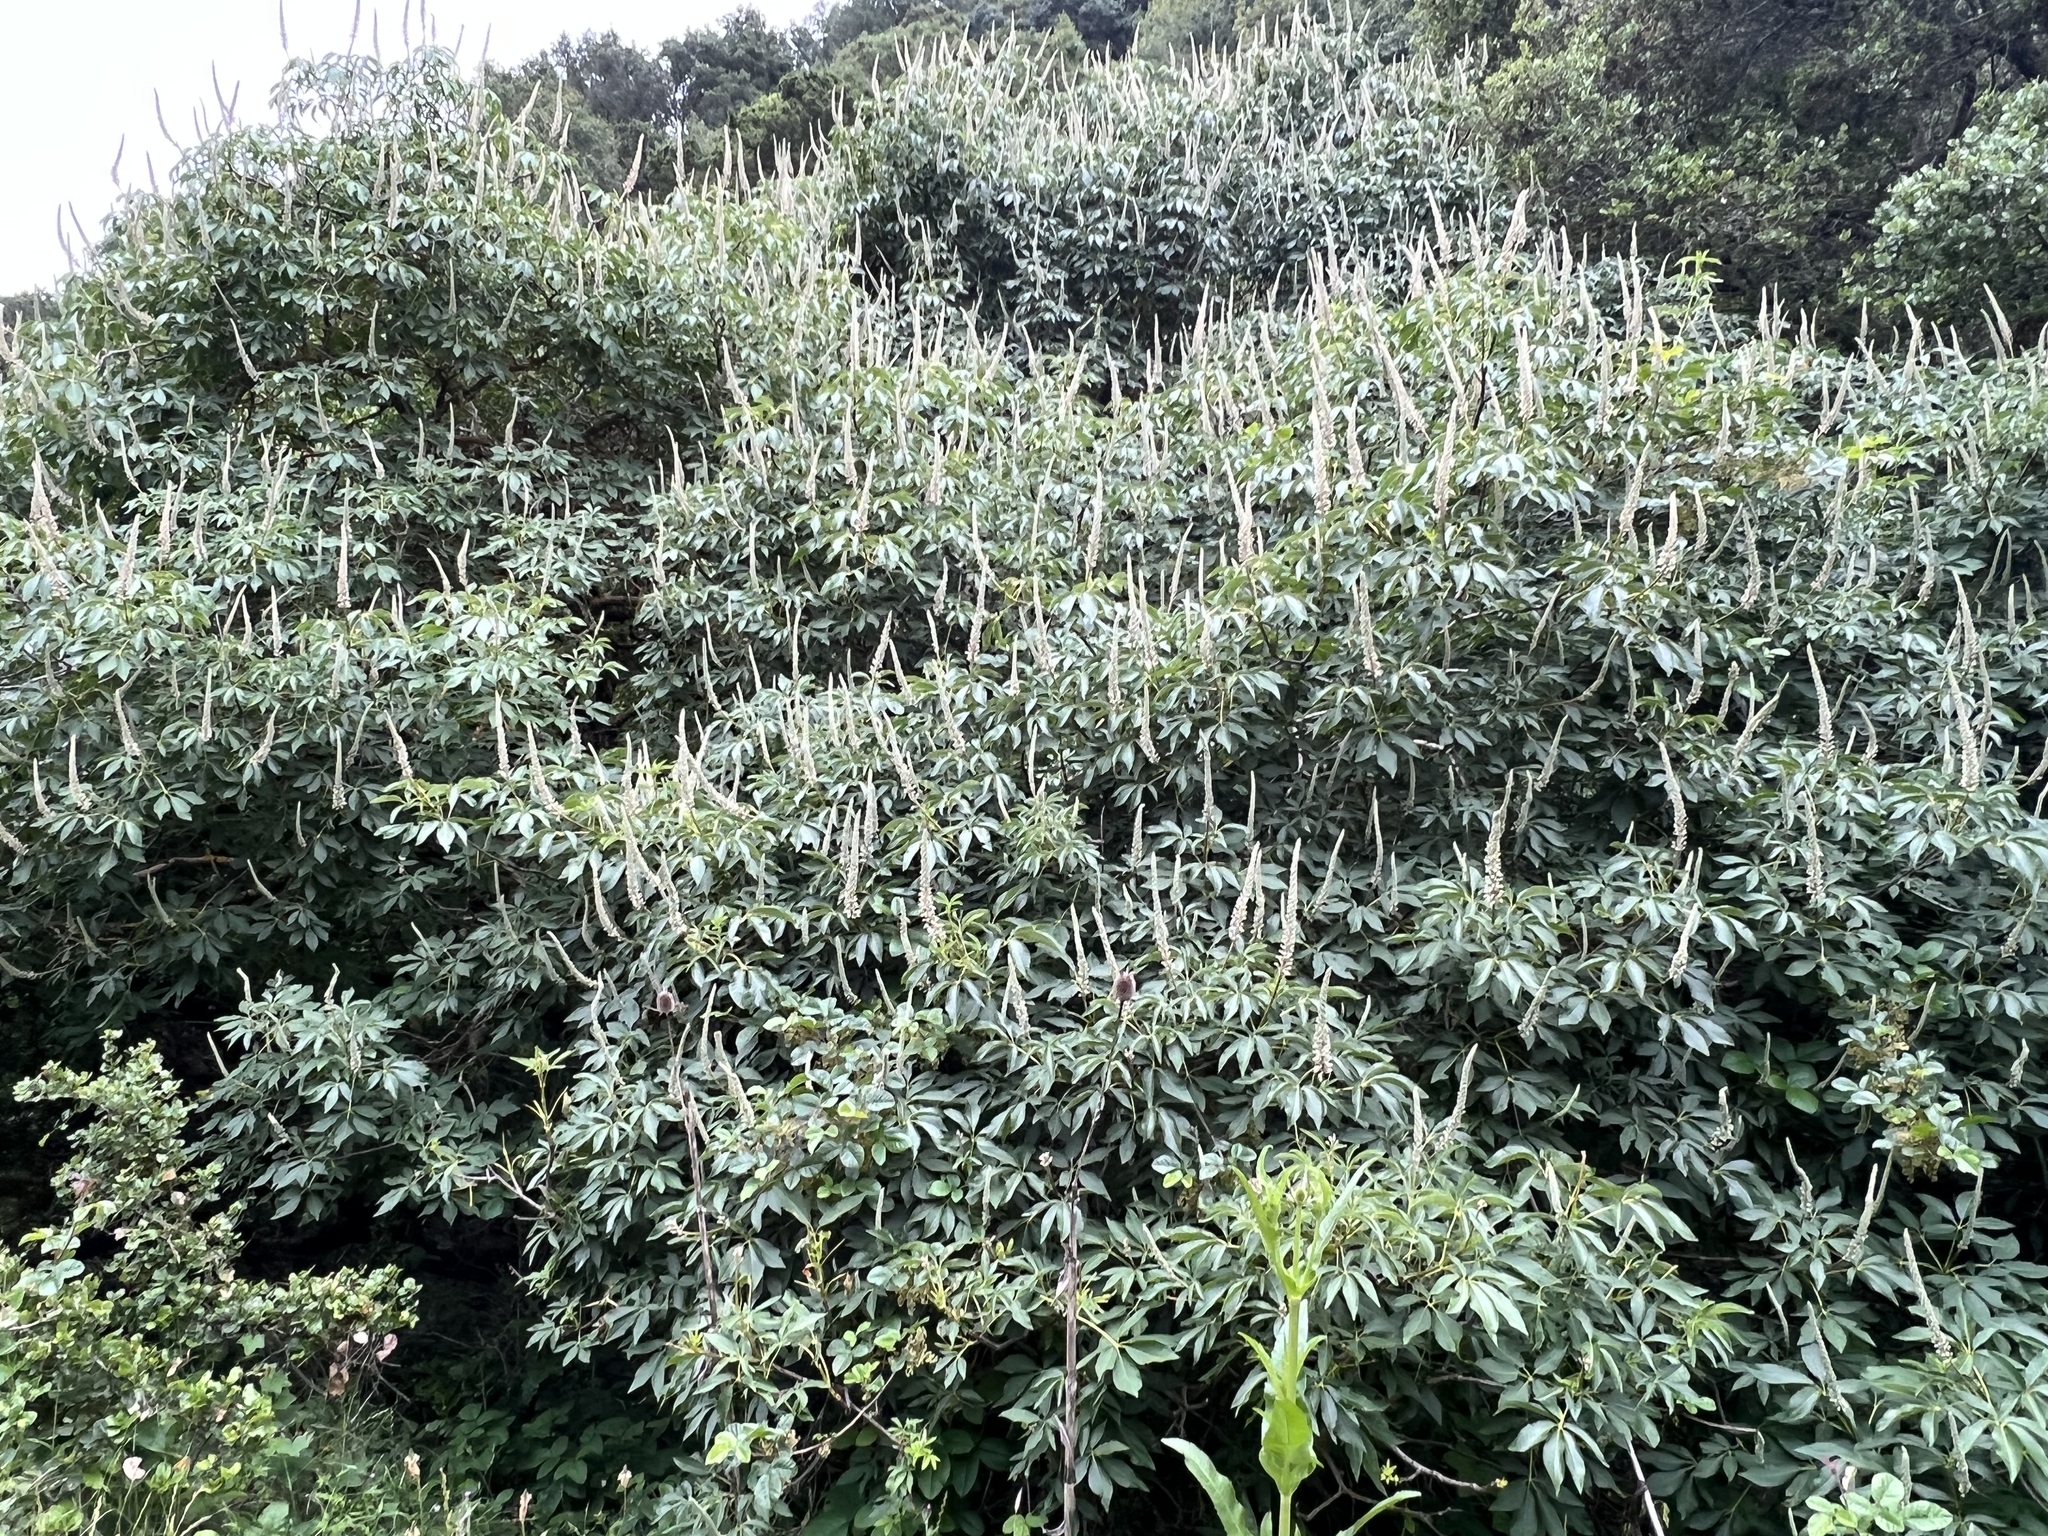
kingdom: Plantae
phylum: Tracheophyta
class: Magnoliopsida
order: Sapindales
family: Sapindaceae
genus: Aesculus
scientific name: Aesculus californica
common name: California buckeye
